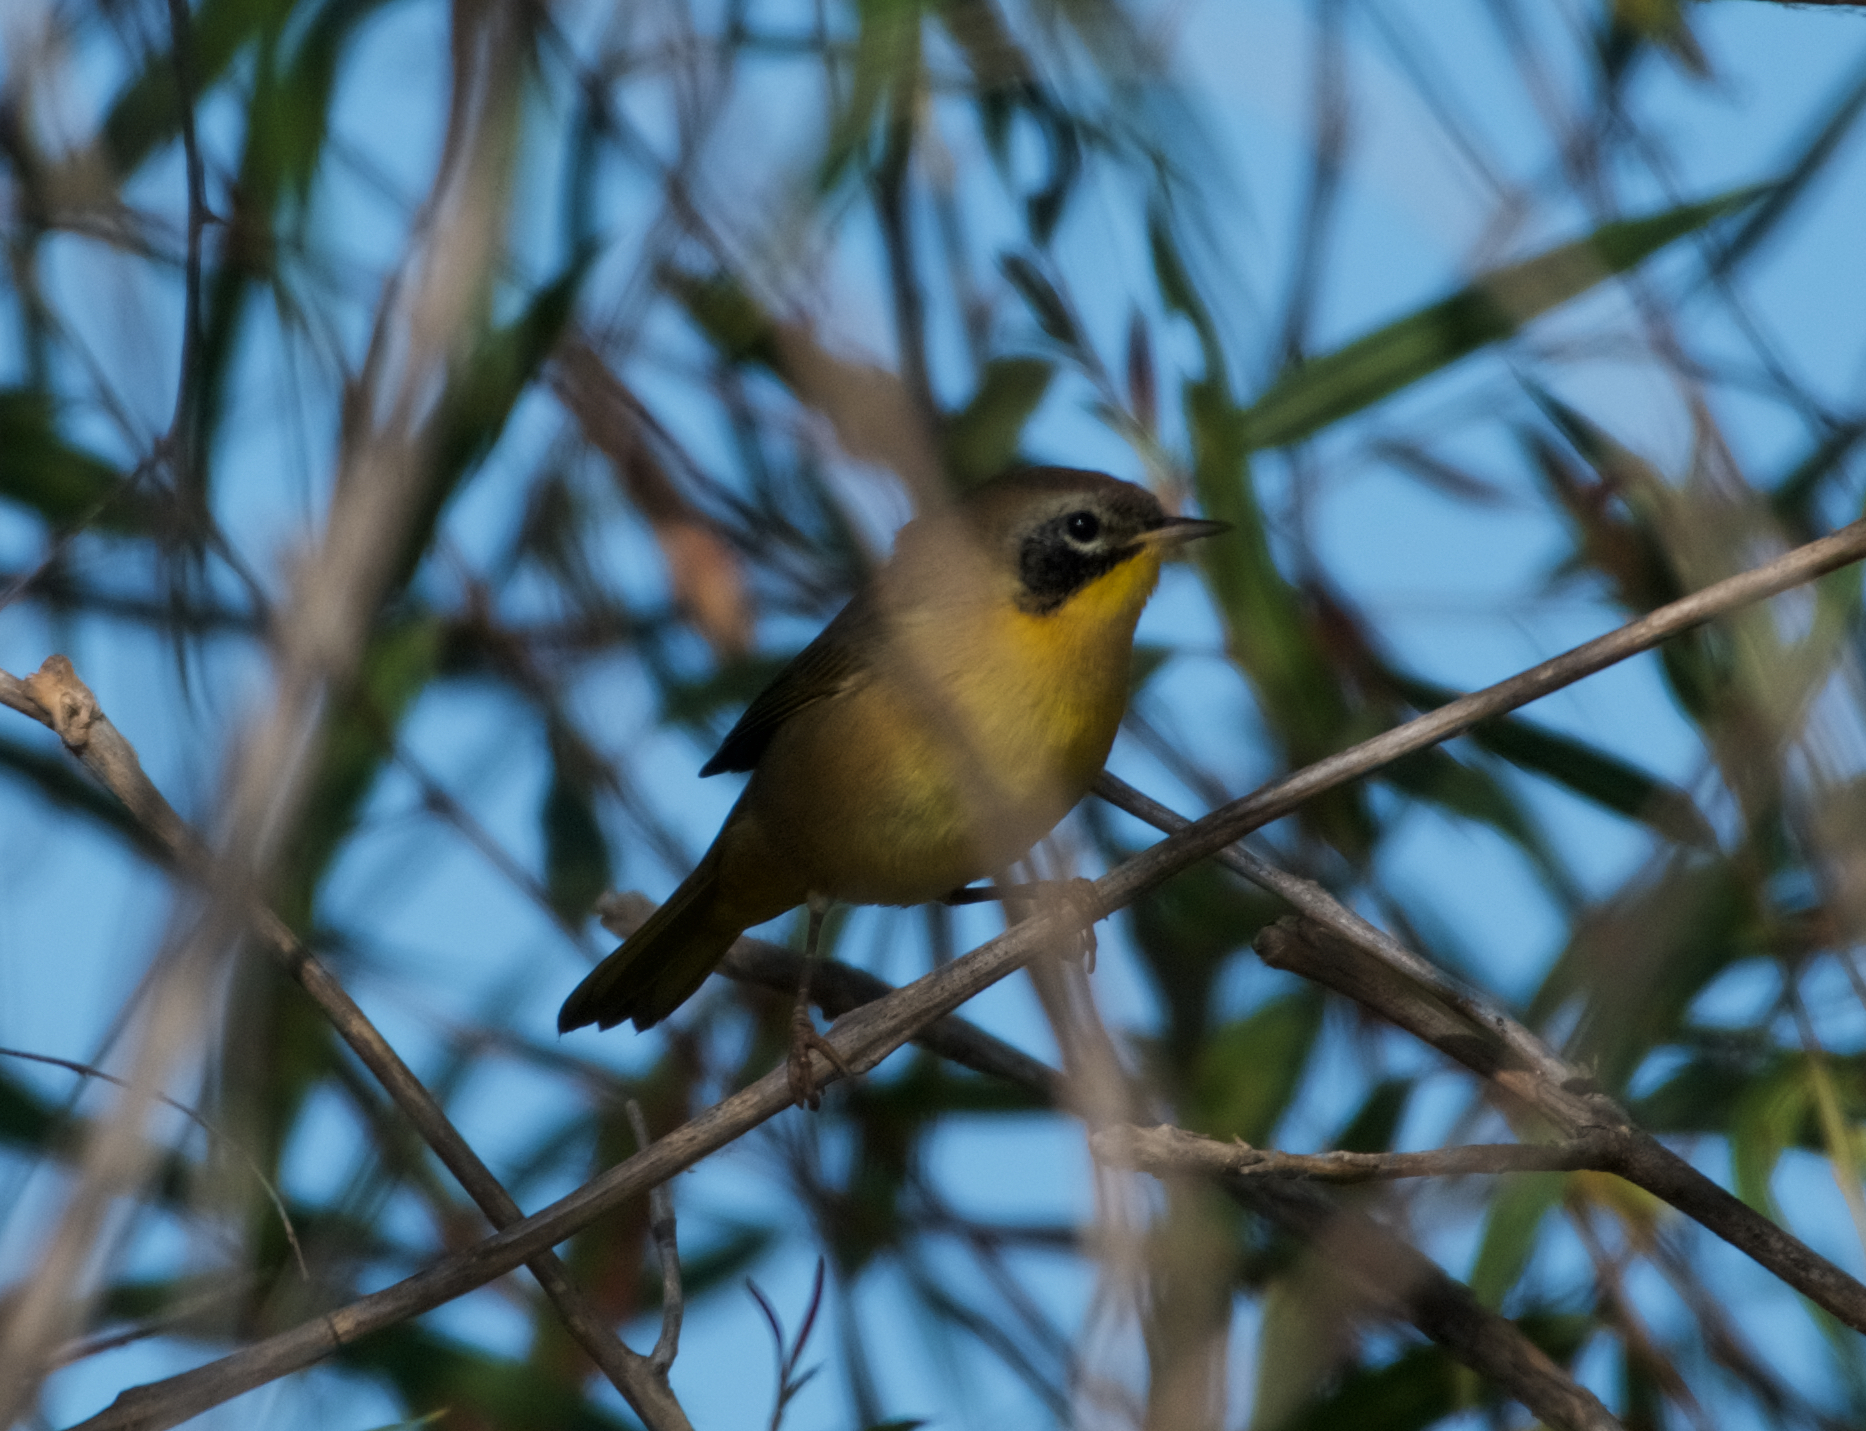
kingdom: Animalia
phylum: Chordata
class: Aves
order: Passeriformes
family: Parulidae
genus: Geothlypis
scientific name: Geothlypis trichas
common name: Common yellowthroat
